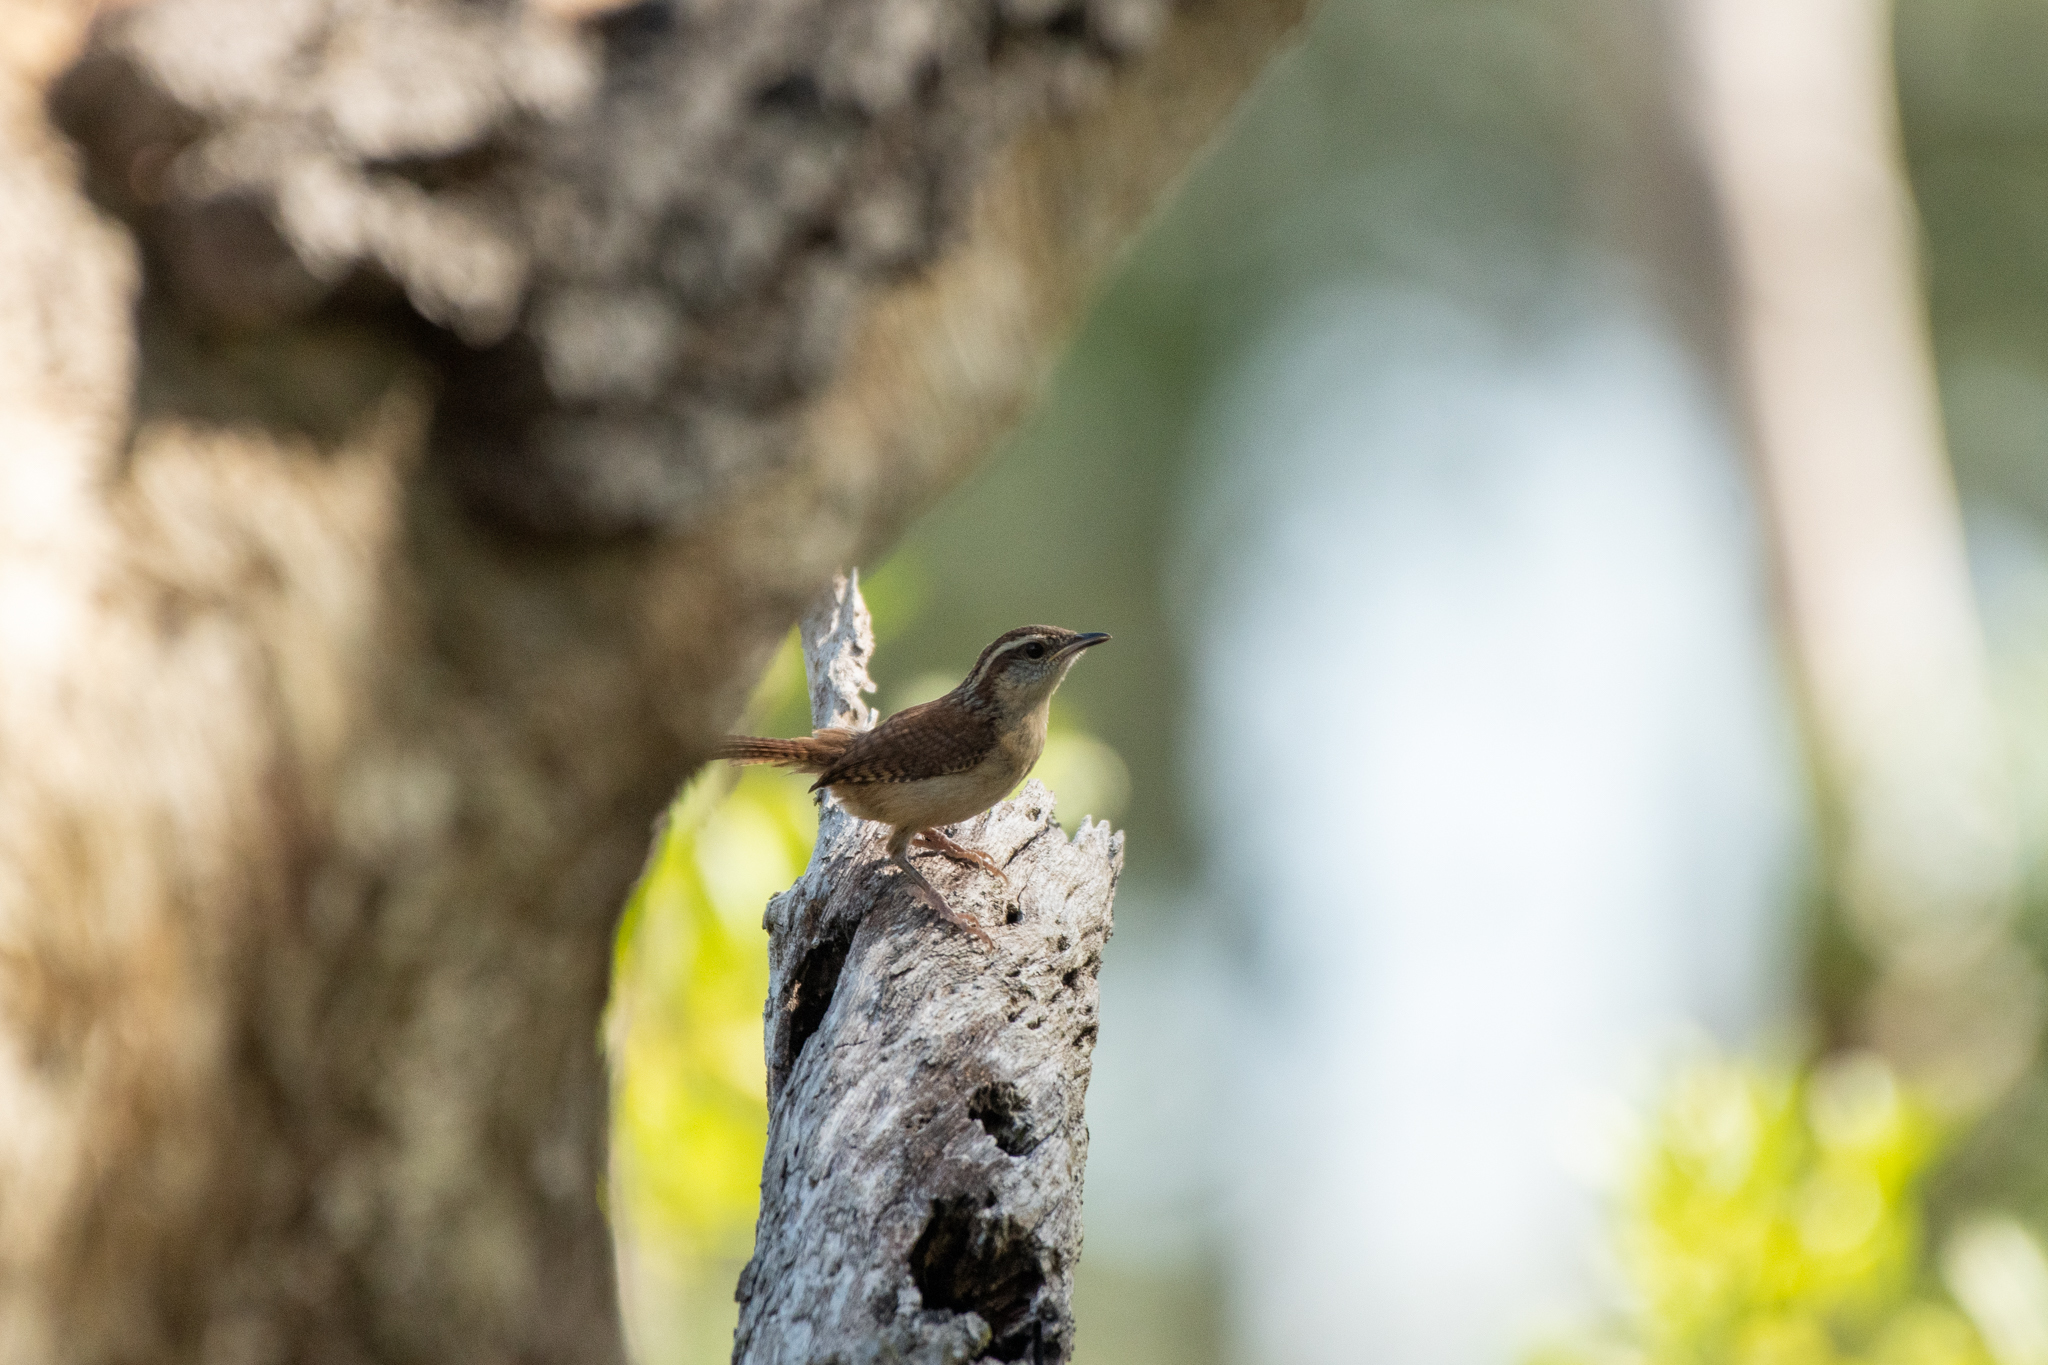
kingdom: Animalia
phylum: Chordata
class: Aves
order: Passeriformes
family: Troglodytidae
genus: Thryothorus
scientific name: Thryothorus ludovicianus
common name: Carolina wren
